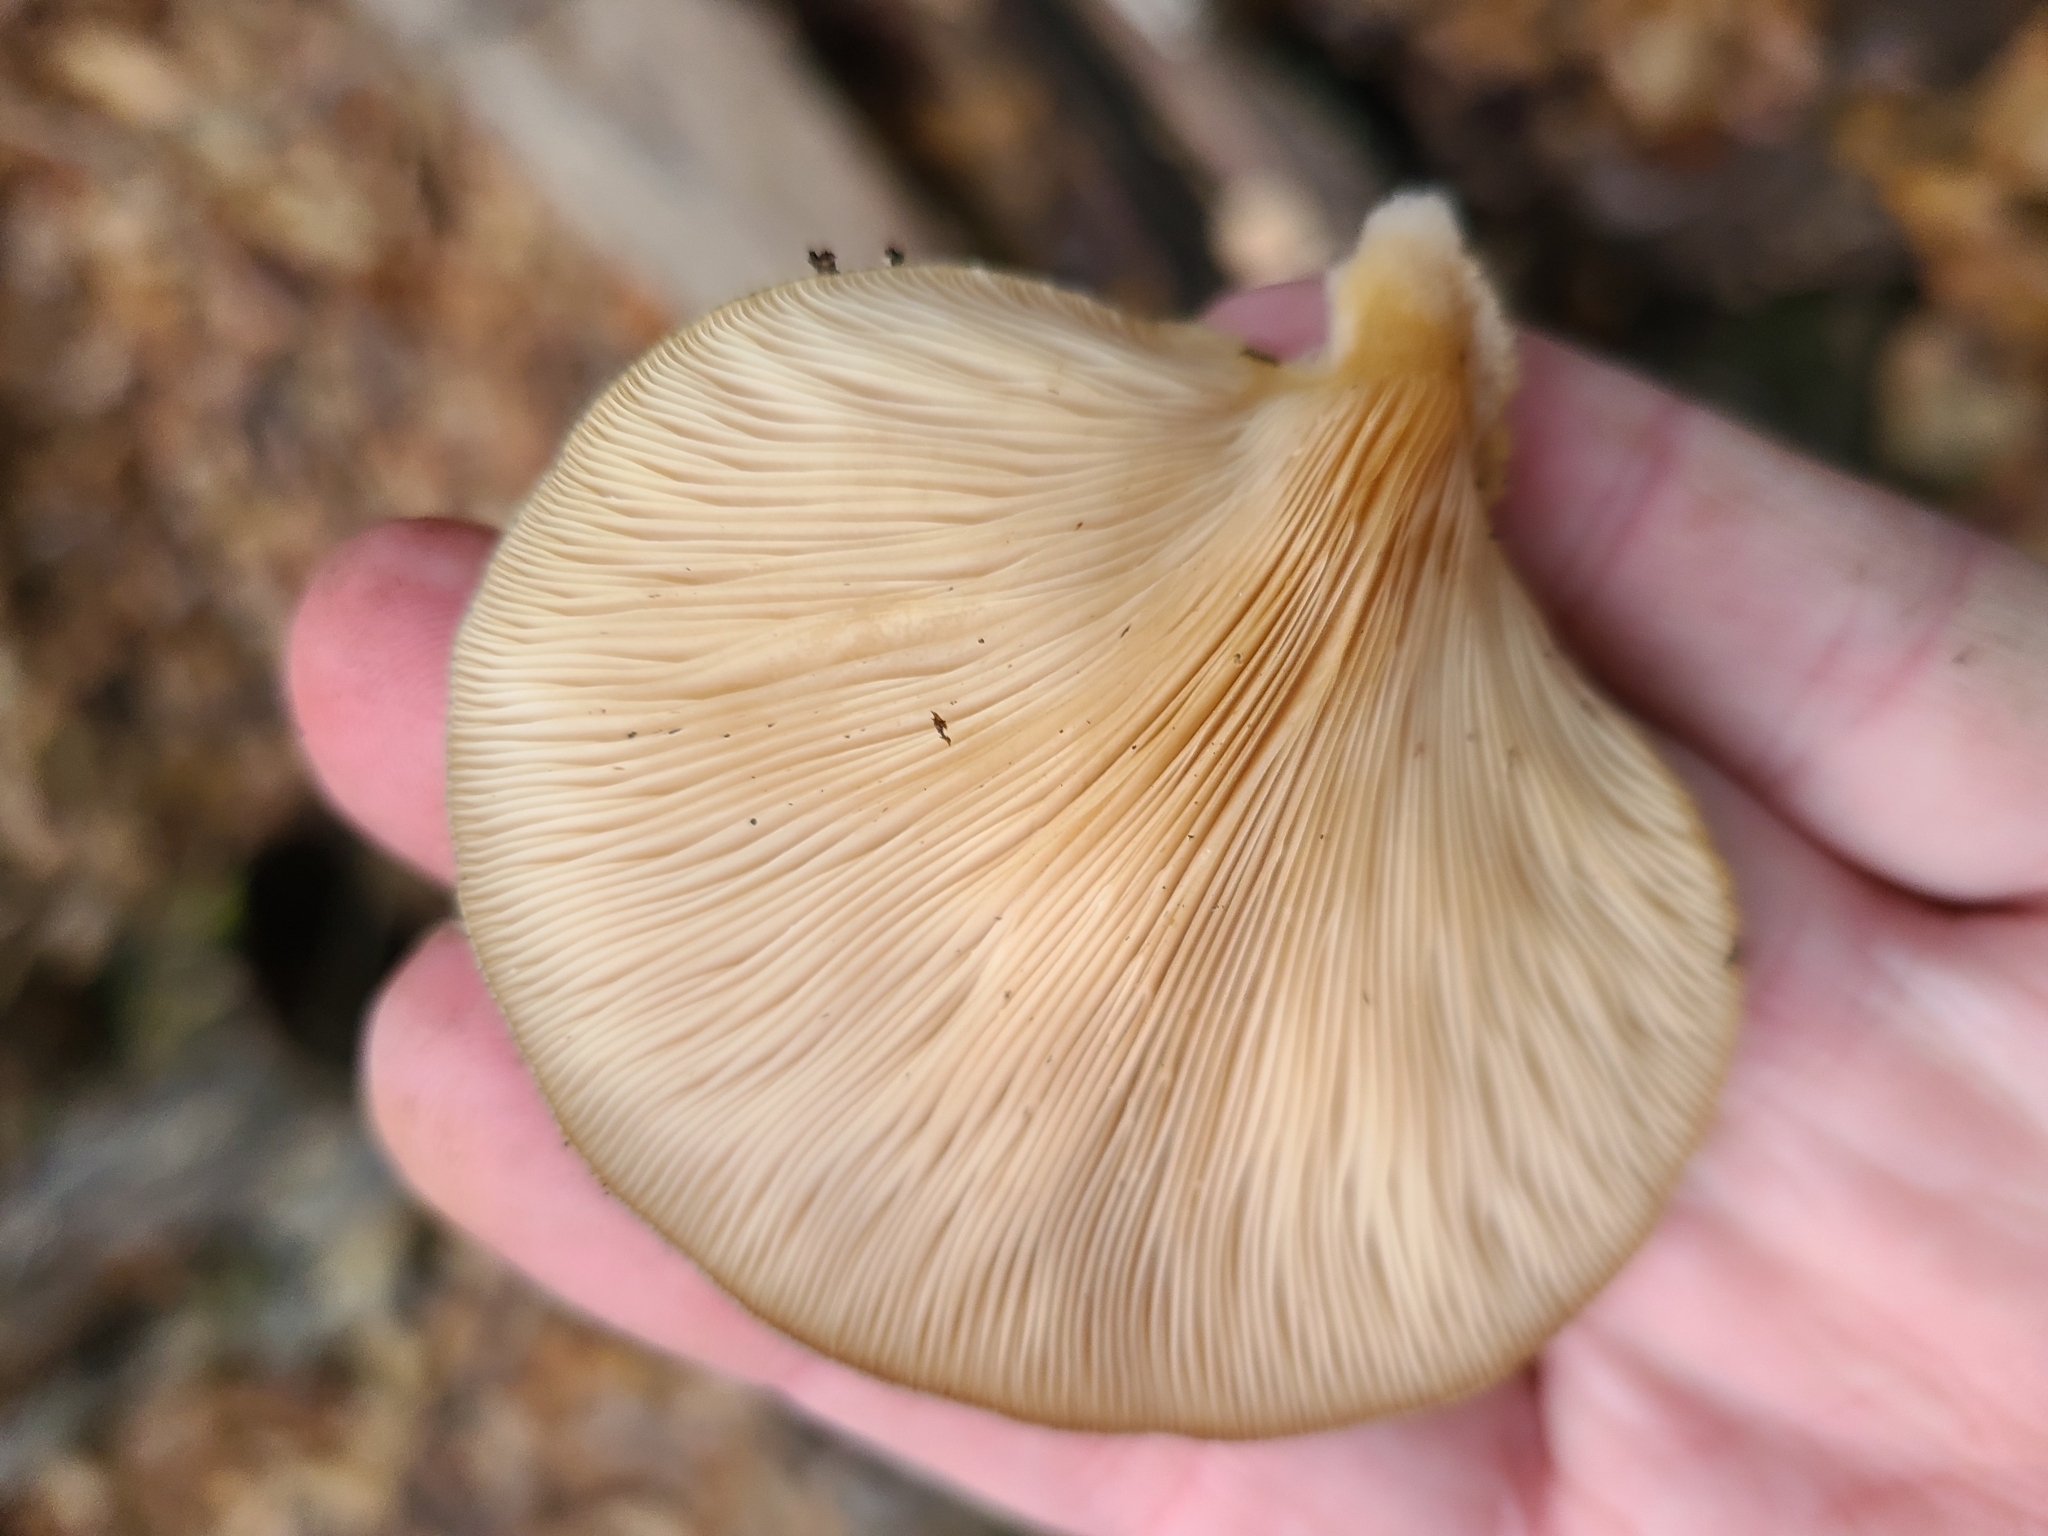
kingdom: Fungi
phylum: Basidiomycota
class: Agaricomycetes
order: Agaricales
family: Sarcomyxaceae
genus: Sarcomyxa
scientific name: Sarcomyxa serotina
